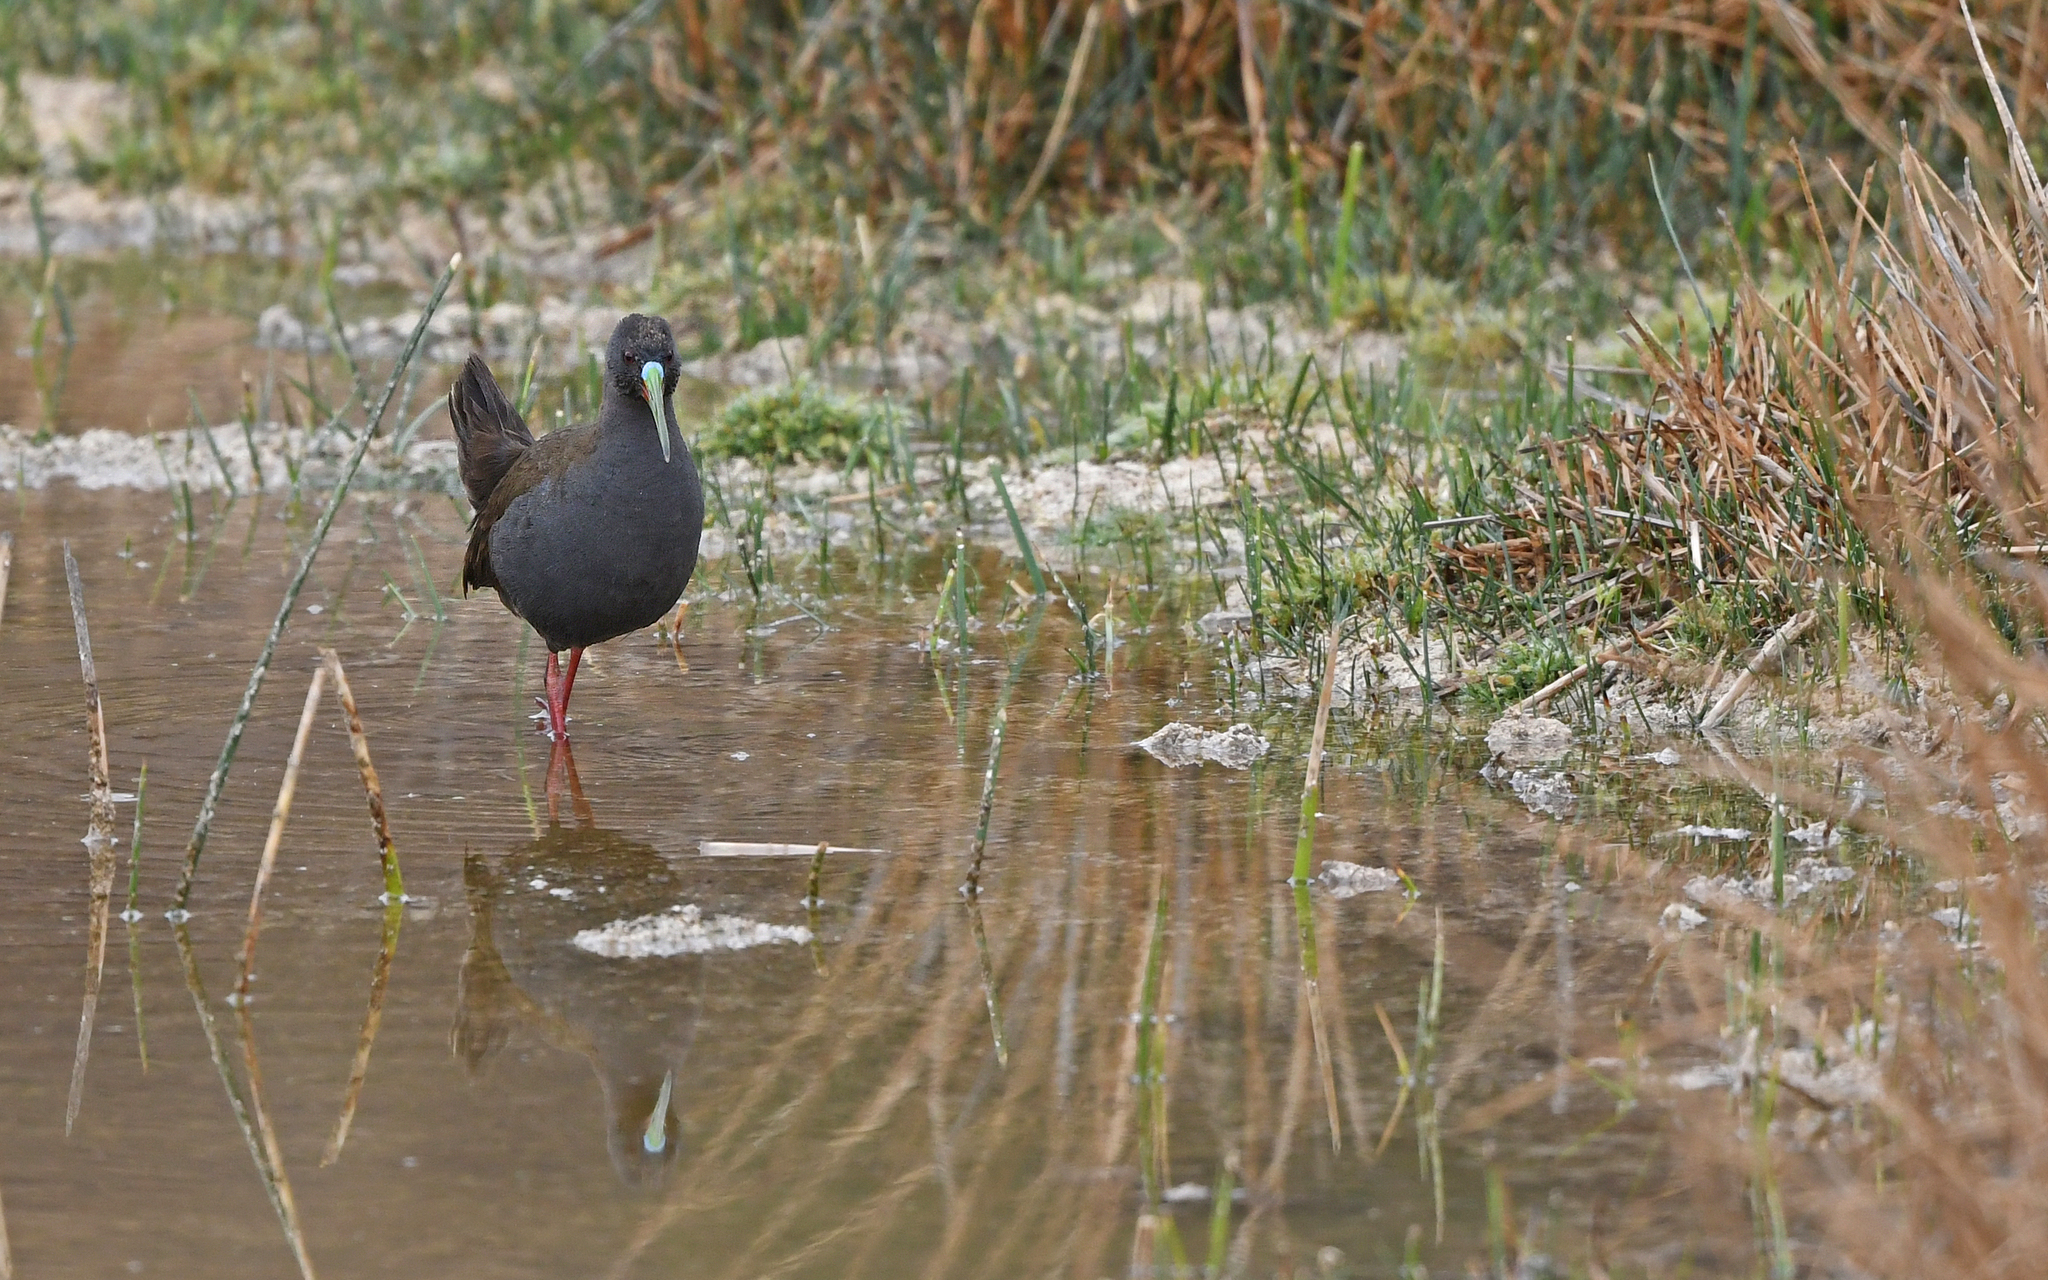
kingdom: Animalia
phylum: Chordata
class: Aves
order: Gruiformes
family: Rallidae
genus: Pardirallus
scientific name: Pardirallus sanguinolentus
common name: Plumbeous rail
